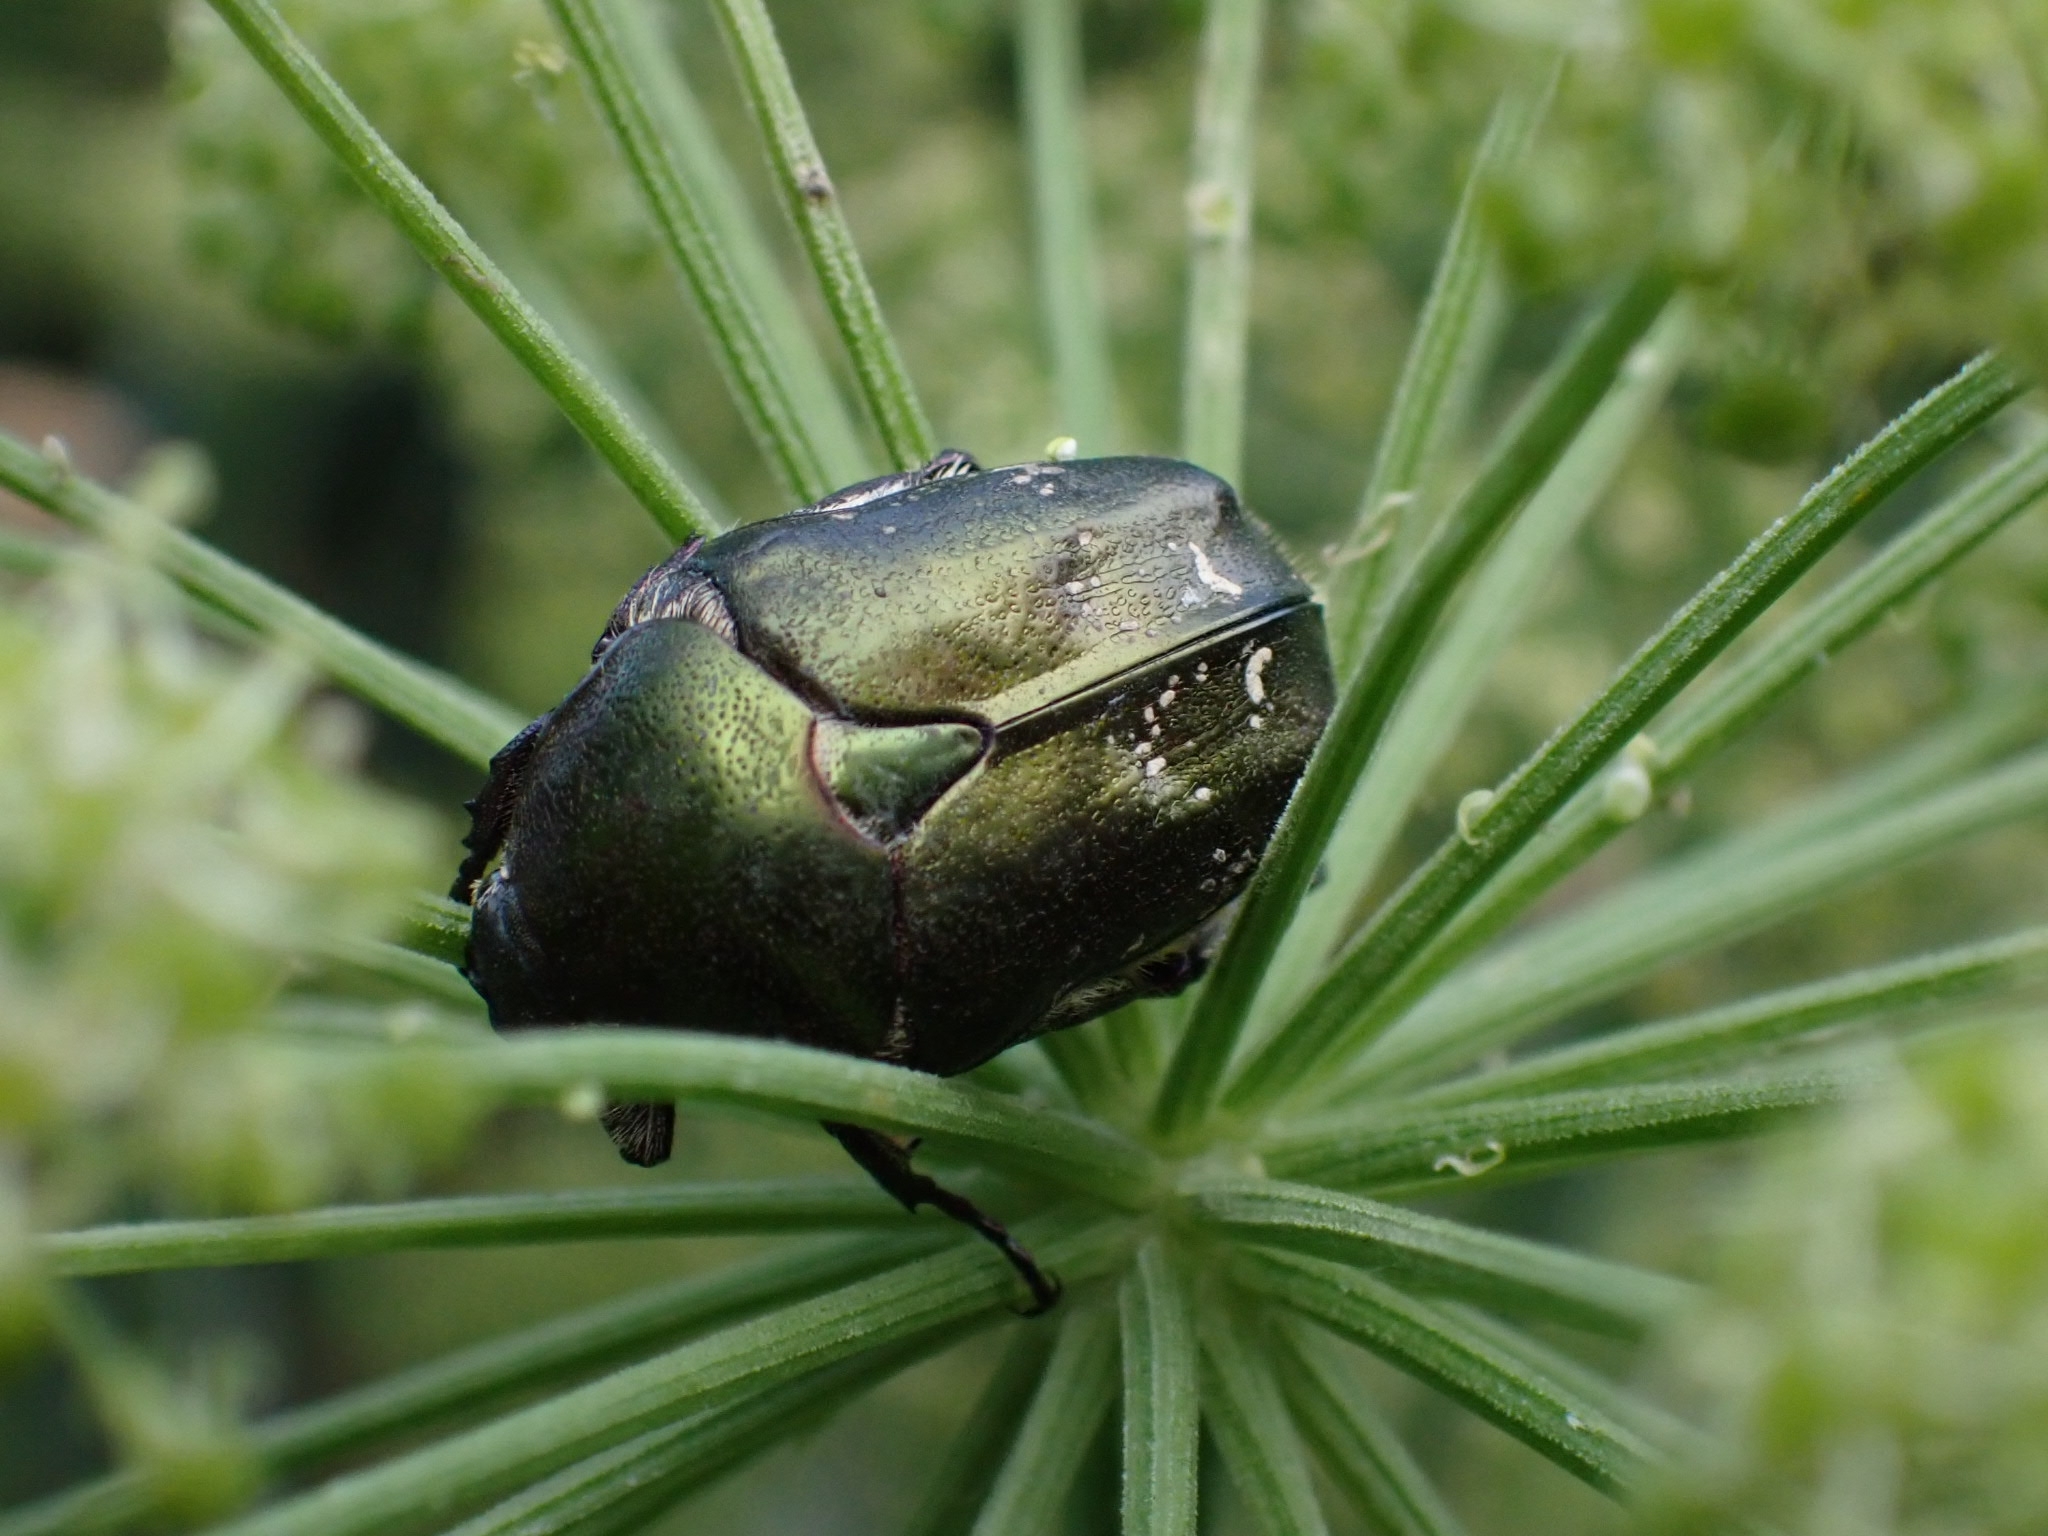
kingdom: Animalia
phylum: Arthropoda
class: Insecta
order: Coleoptera
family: Scarabaeidae
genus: Protaetia
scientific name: Protaetia cuprea
